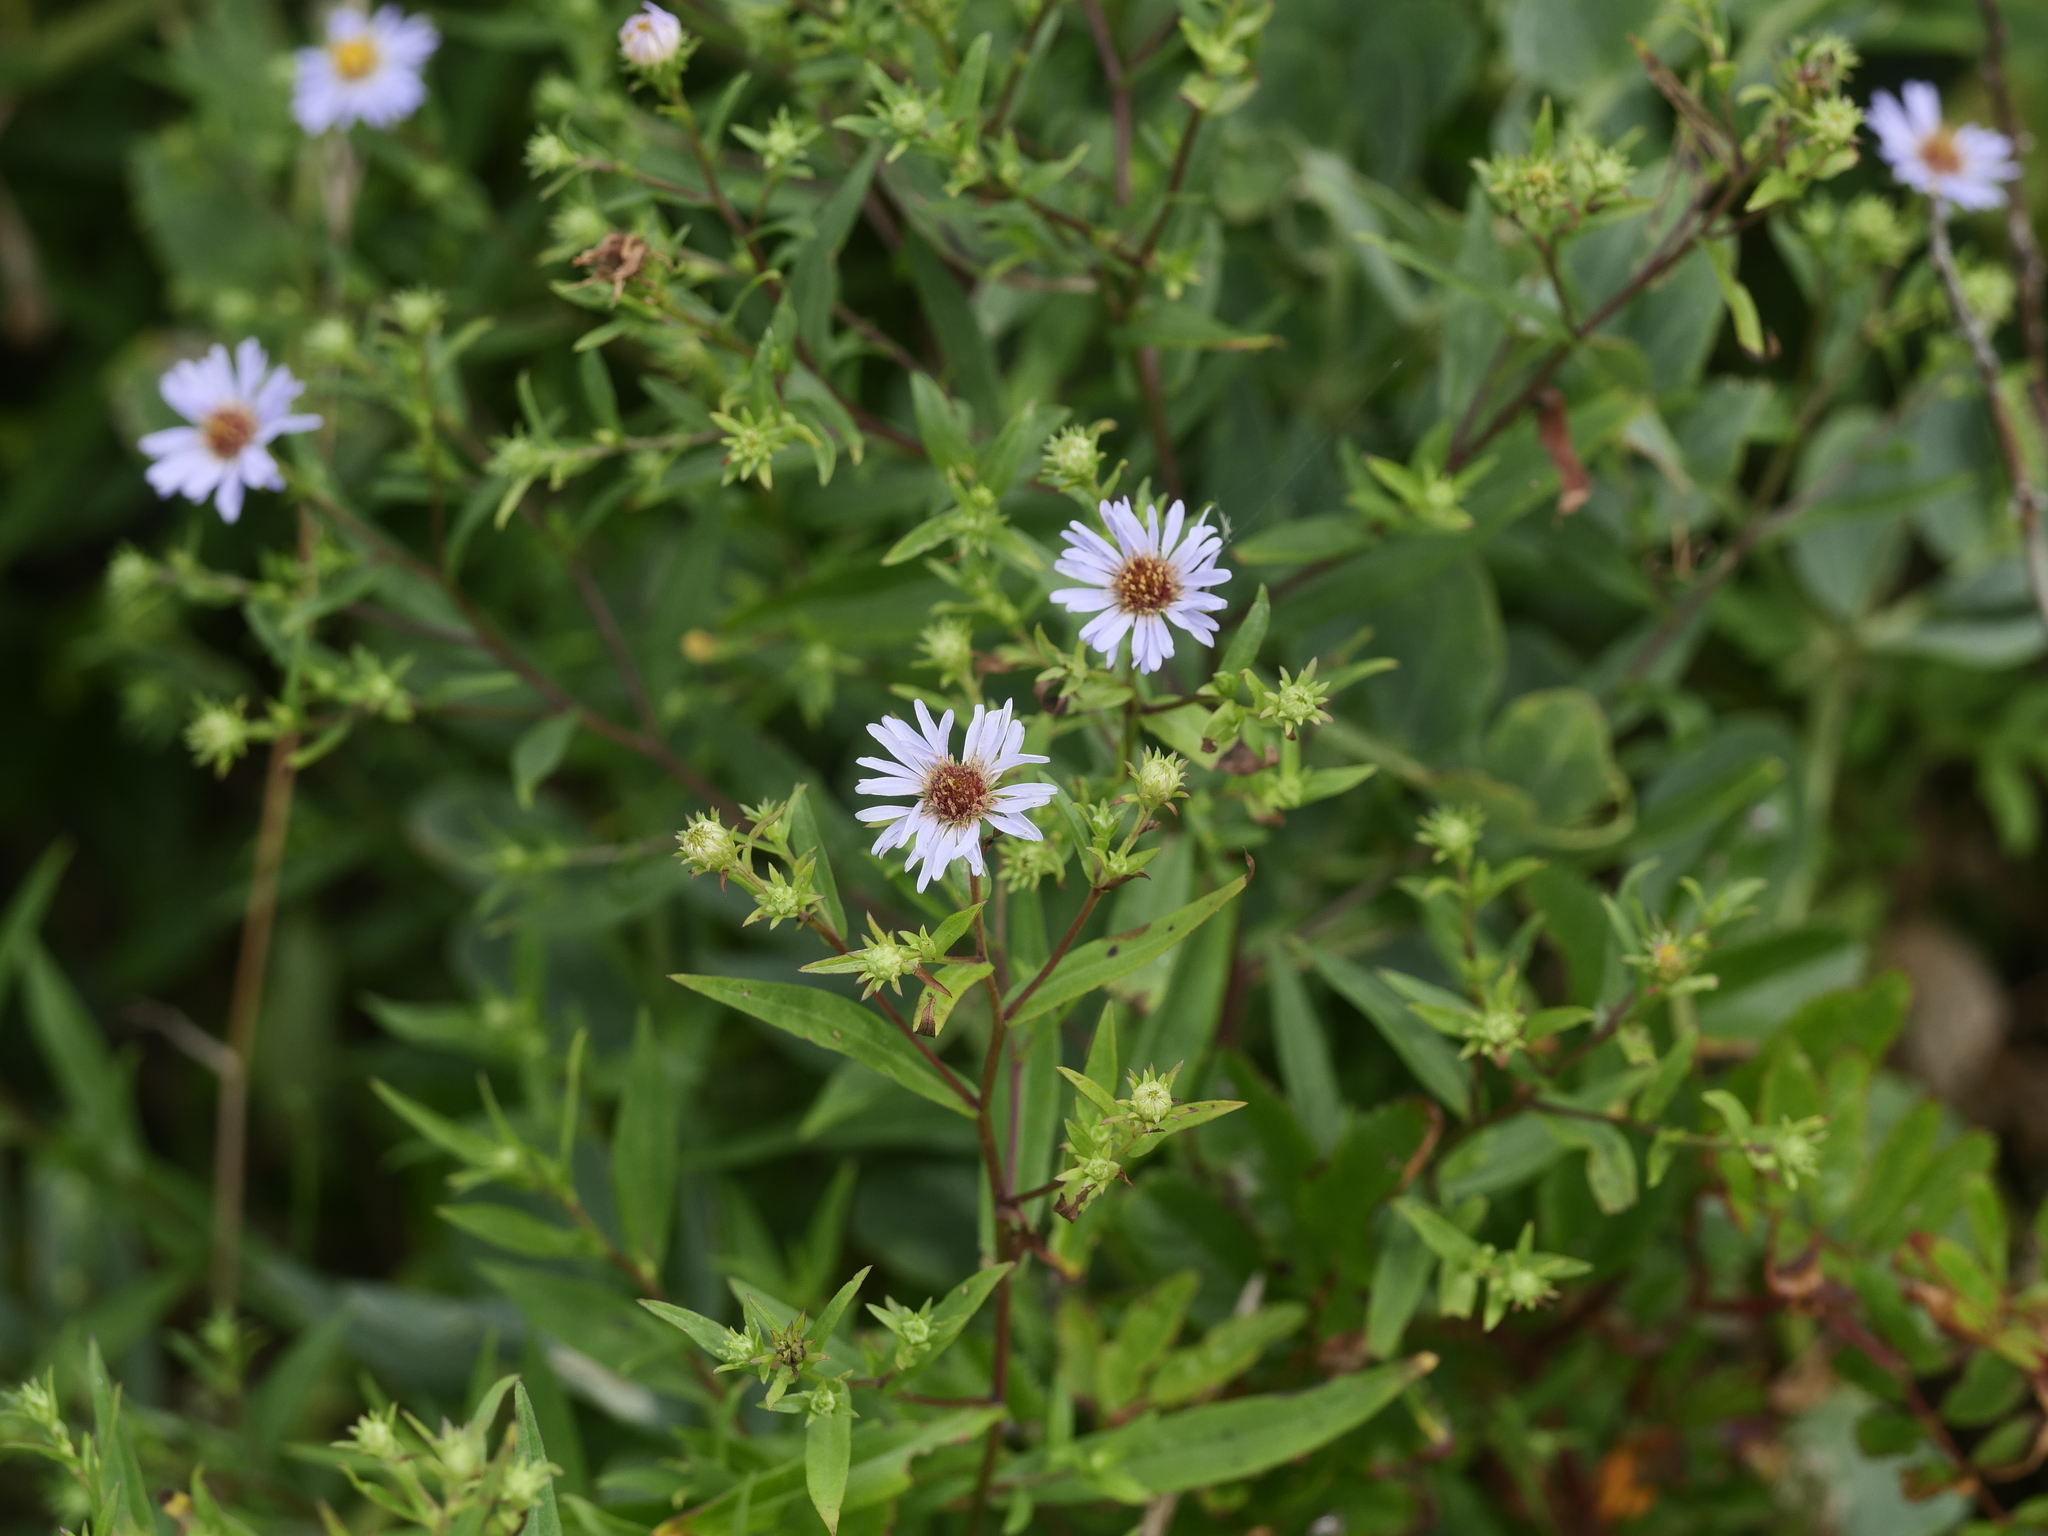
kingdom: Plantae
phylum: Tracheophyta
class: Magnoliopsida
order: Asterales
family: Asteraceae
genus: Symphyotrichum
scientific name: Symphyotrichum novi-belgii
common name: Michaelmas daisy
